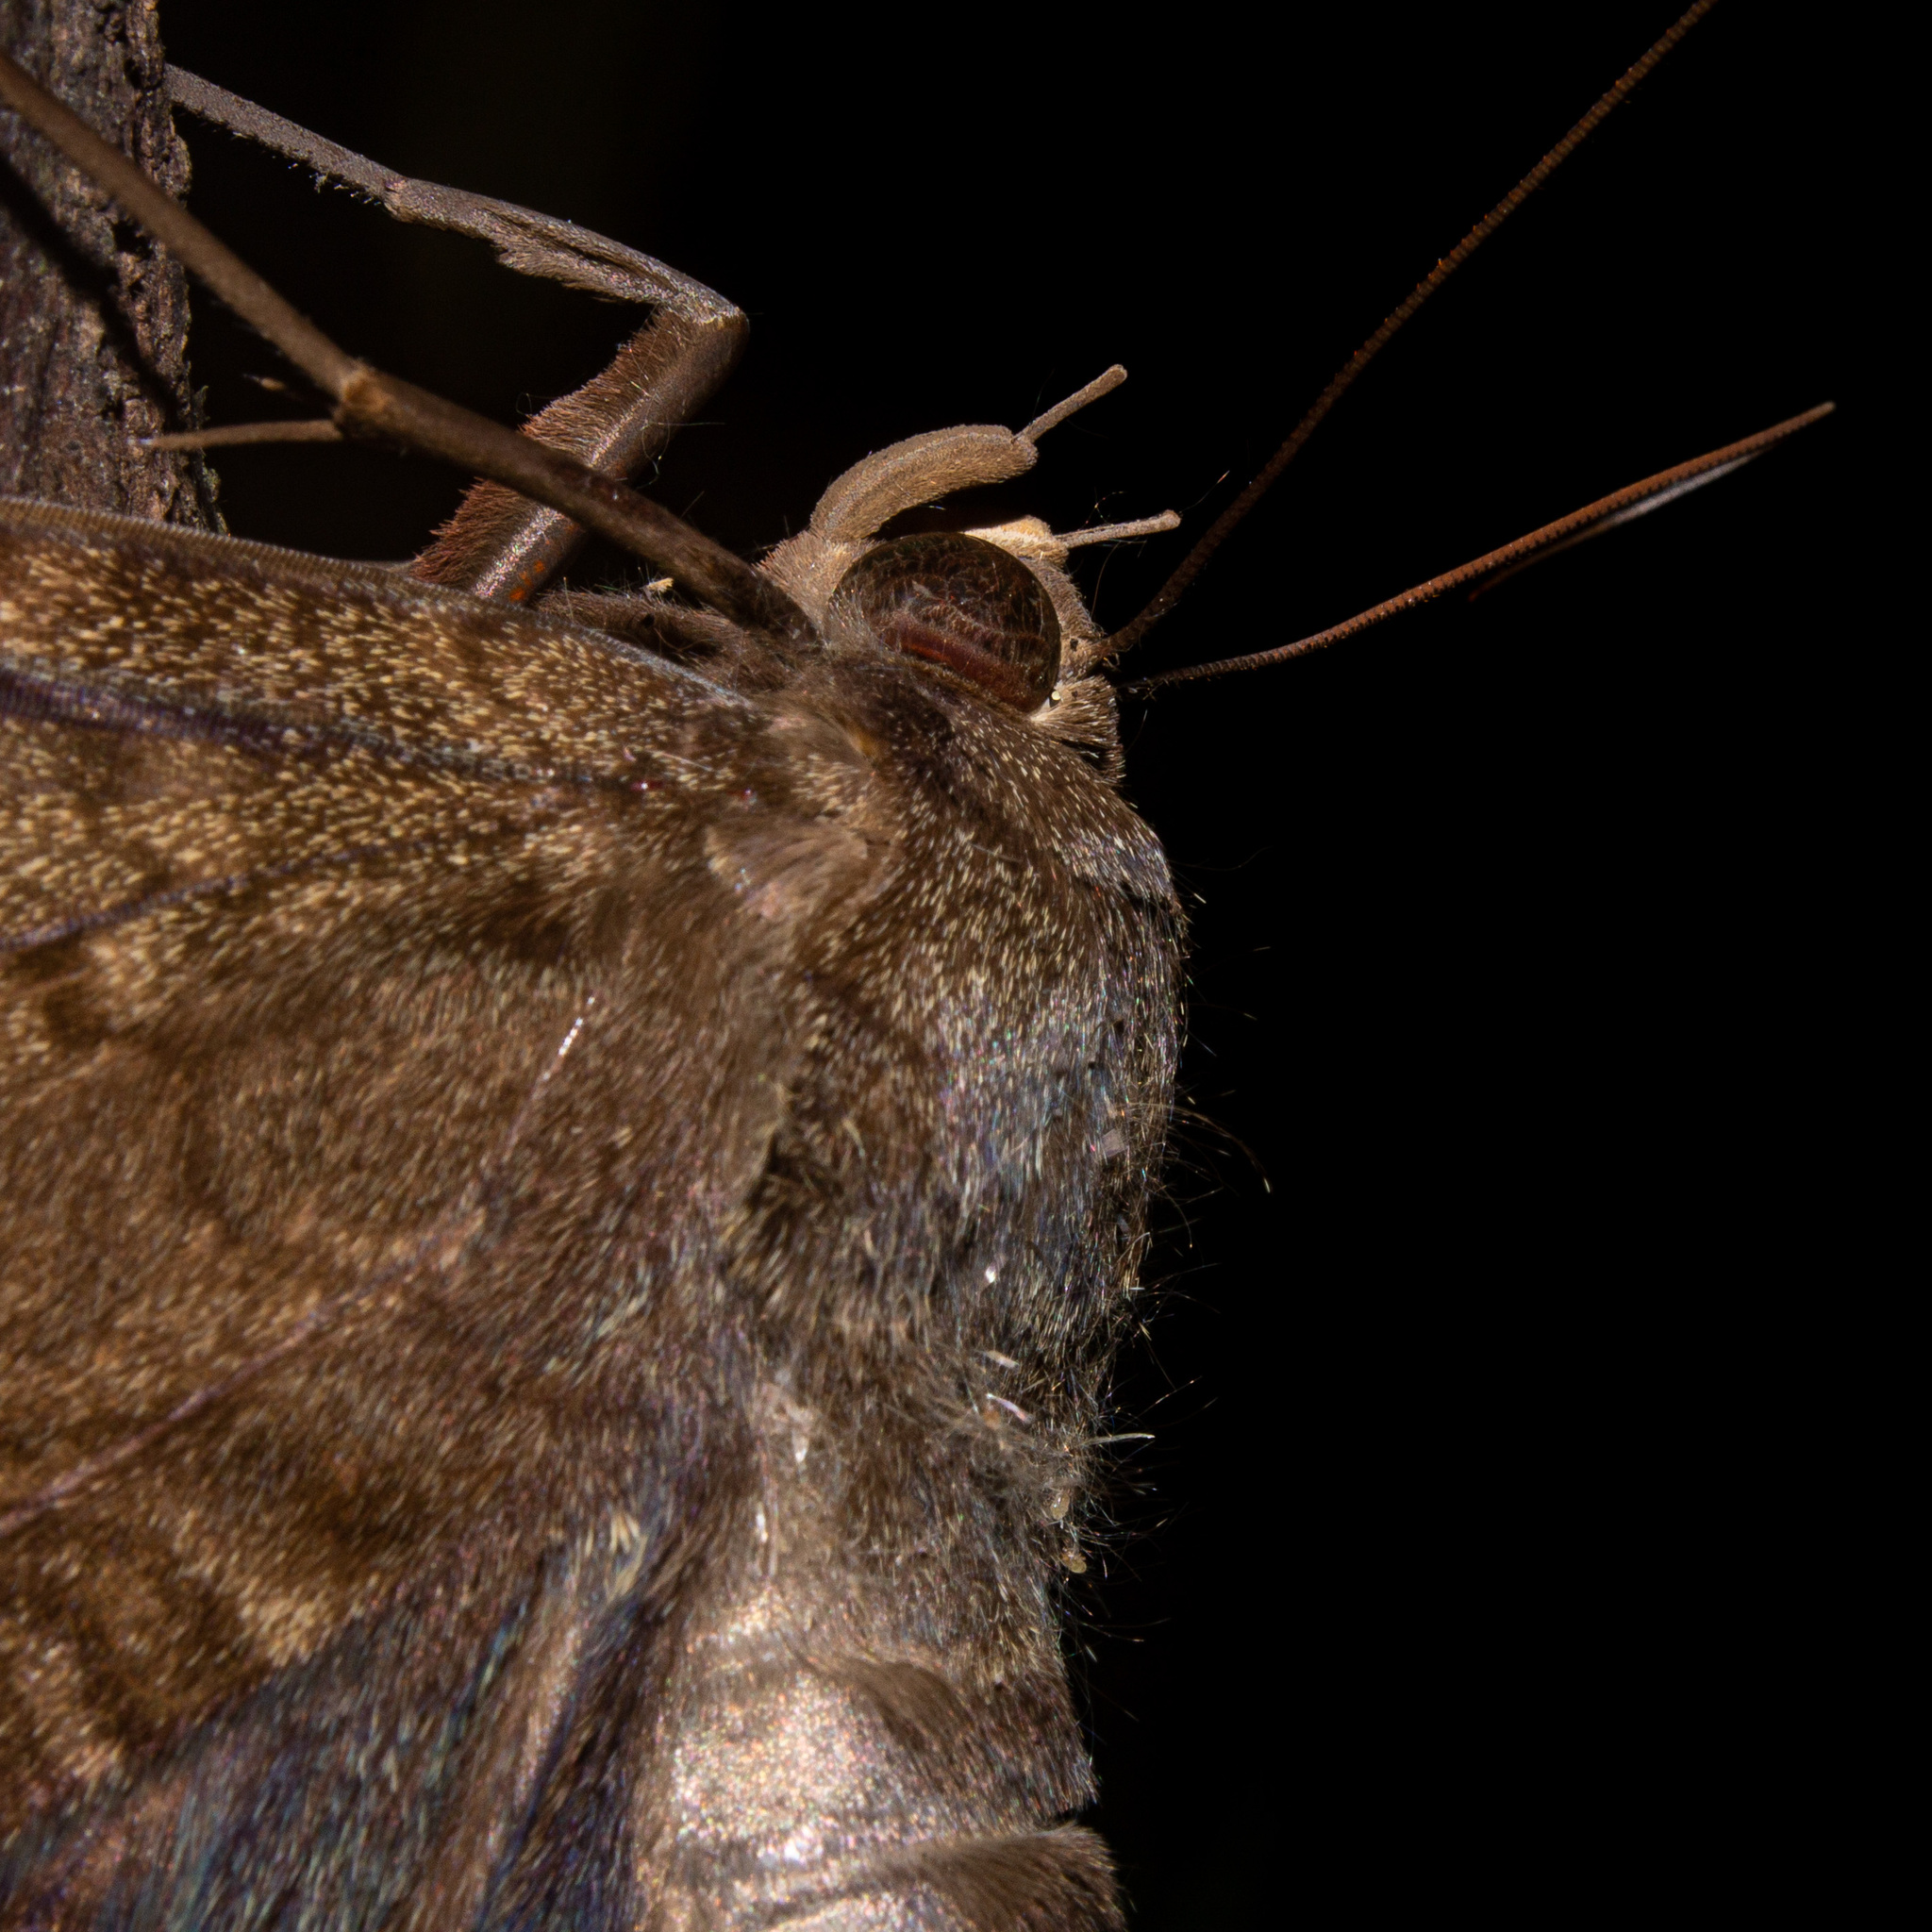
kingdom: Animalia
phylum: Arthropoda
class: Insecta
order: Lepidoptera
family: Erebidae
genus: Ascalapha
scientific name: Ascalapha odorata
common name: Black witch
